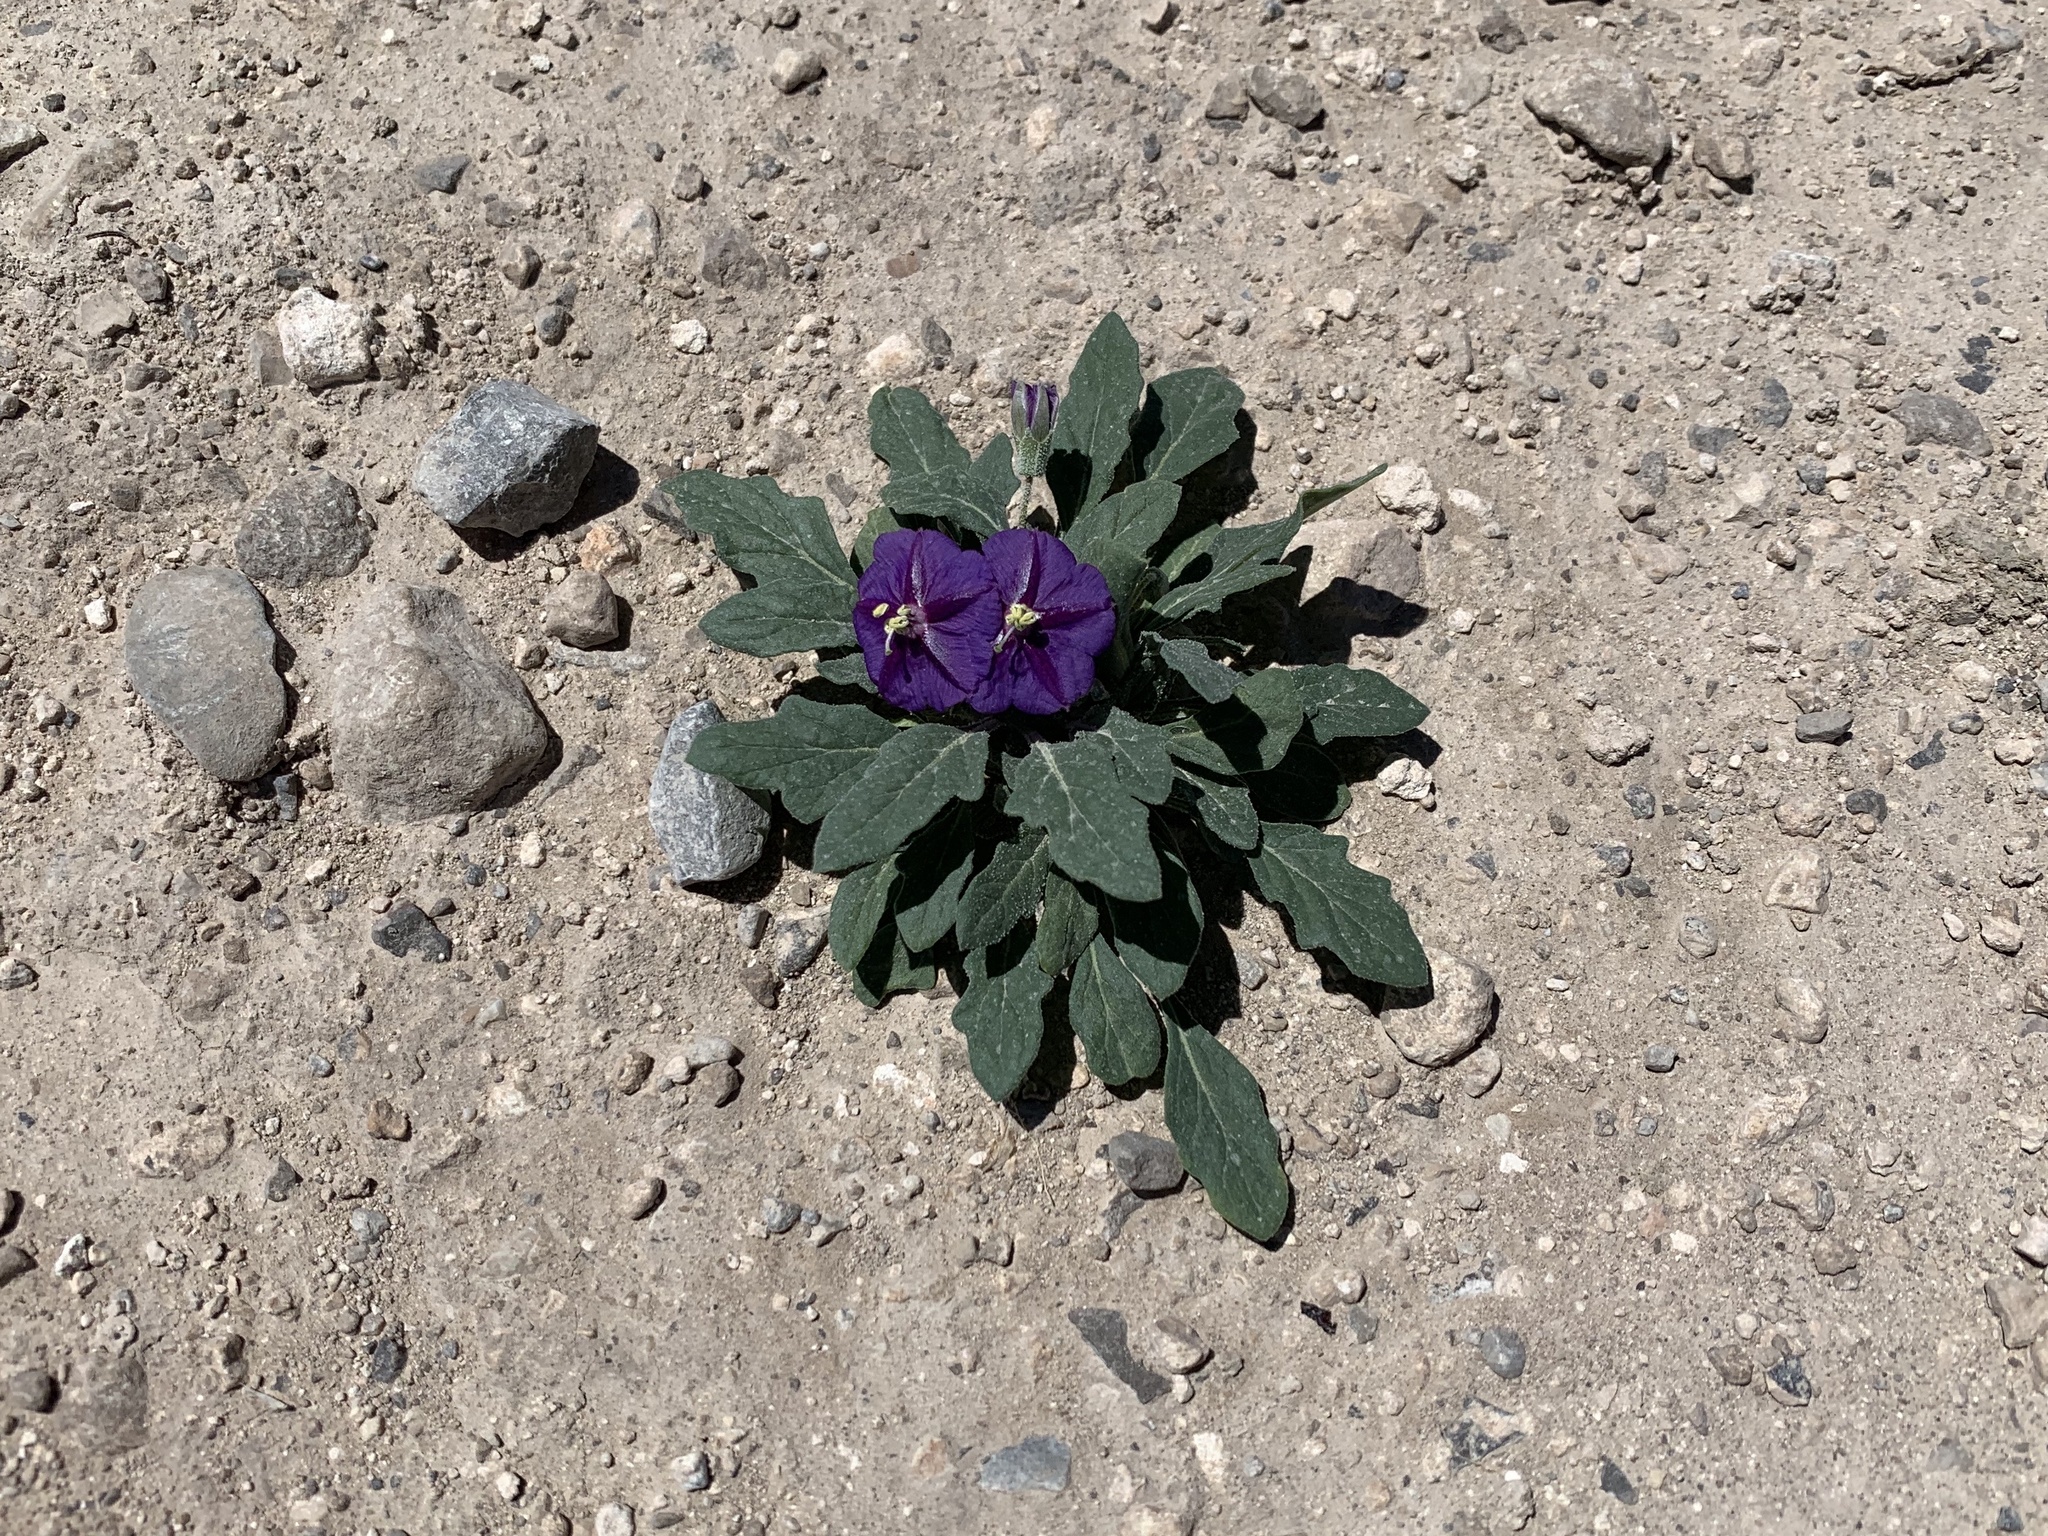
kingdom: Plantae
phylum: Tracheophyta
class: Magnoliopsida
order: Solanales
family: Solanaceae
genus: Quincula
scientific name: Quincula lobata
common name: Purple-ground-cherry
